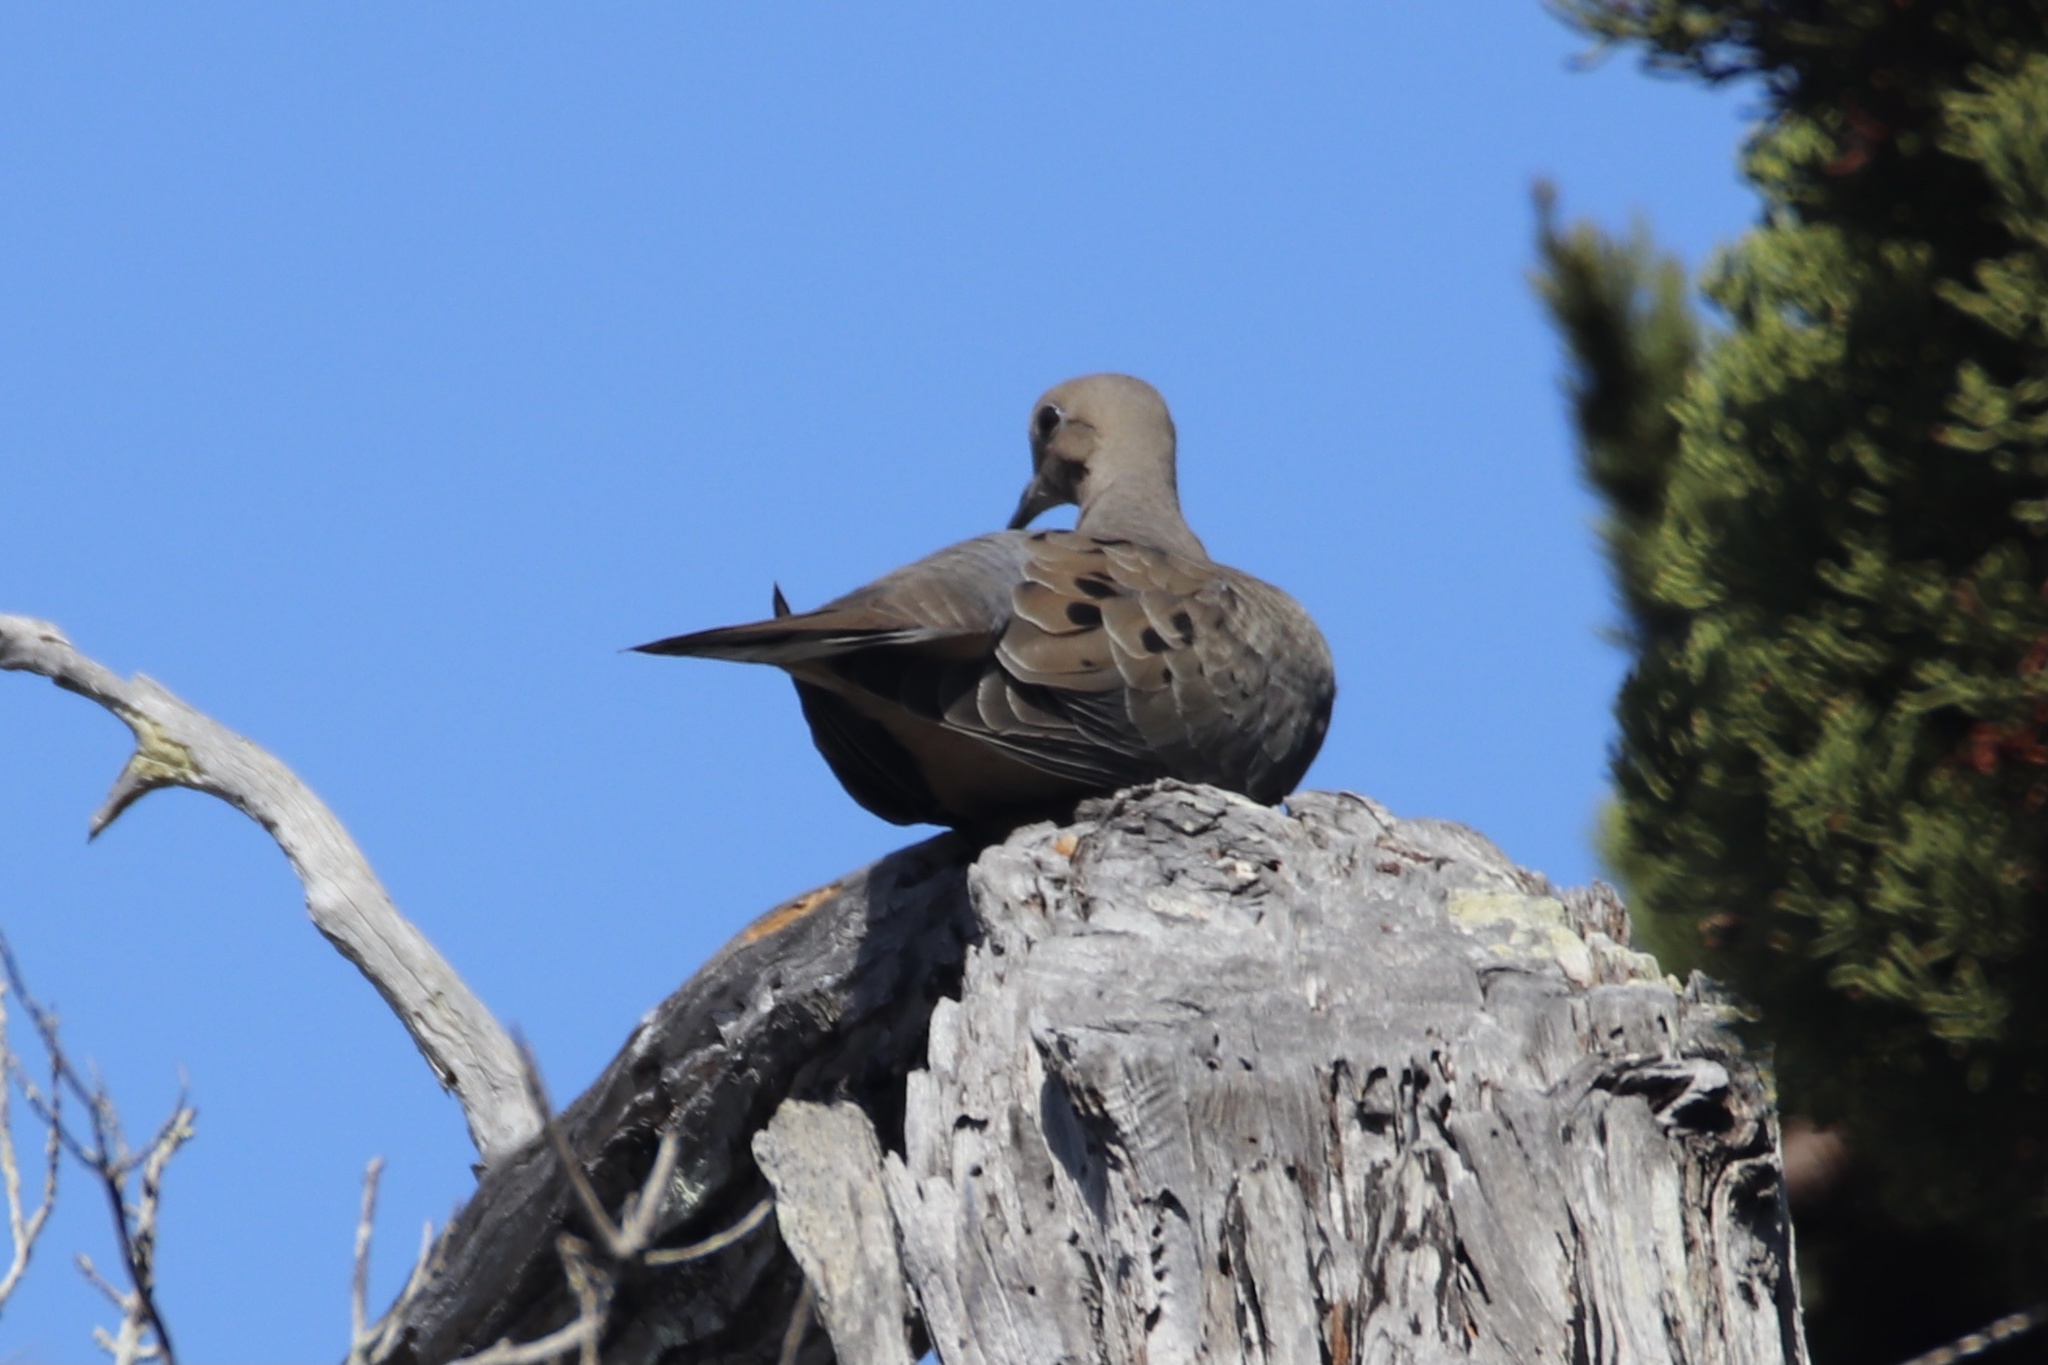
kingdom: Animalia
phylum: Chordata
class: Aves
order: Columbiformes
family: Columbidae
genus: Zenaida
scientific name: Zenaida macroura
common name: Mourning dove
